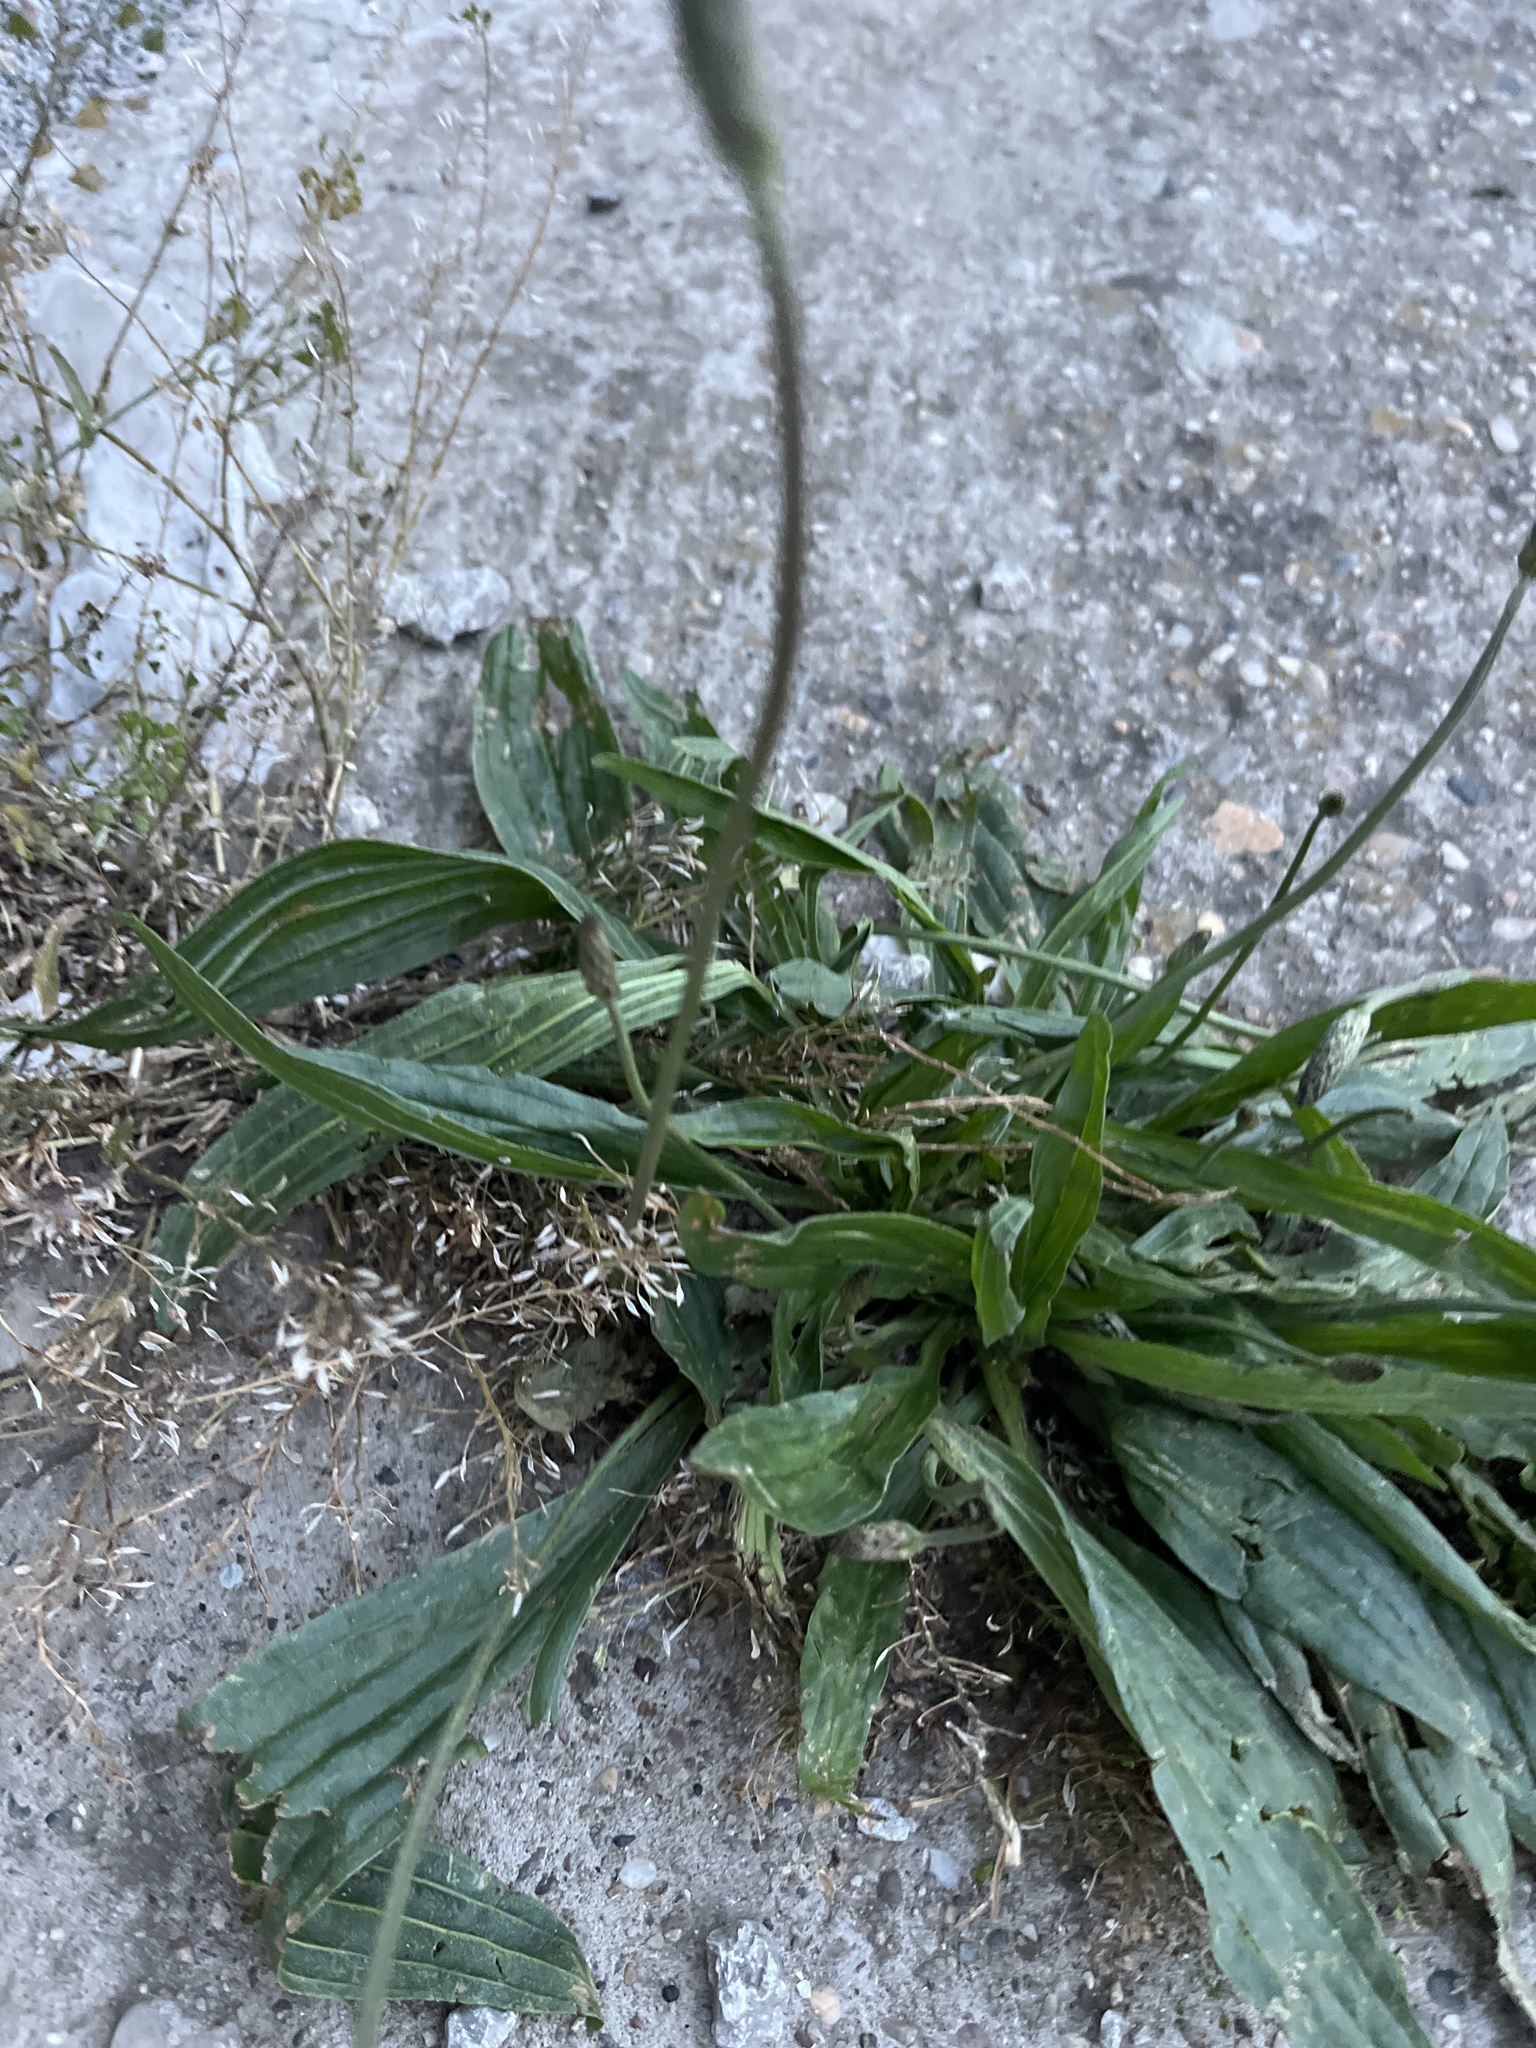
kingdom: Plantae
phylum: Tracheophyta
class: Magnoliopsida
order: Lamiales
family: Plantaginaceae
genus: Plantago
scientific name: Plantago lanceolata
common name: Ribwort plantain
